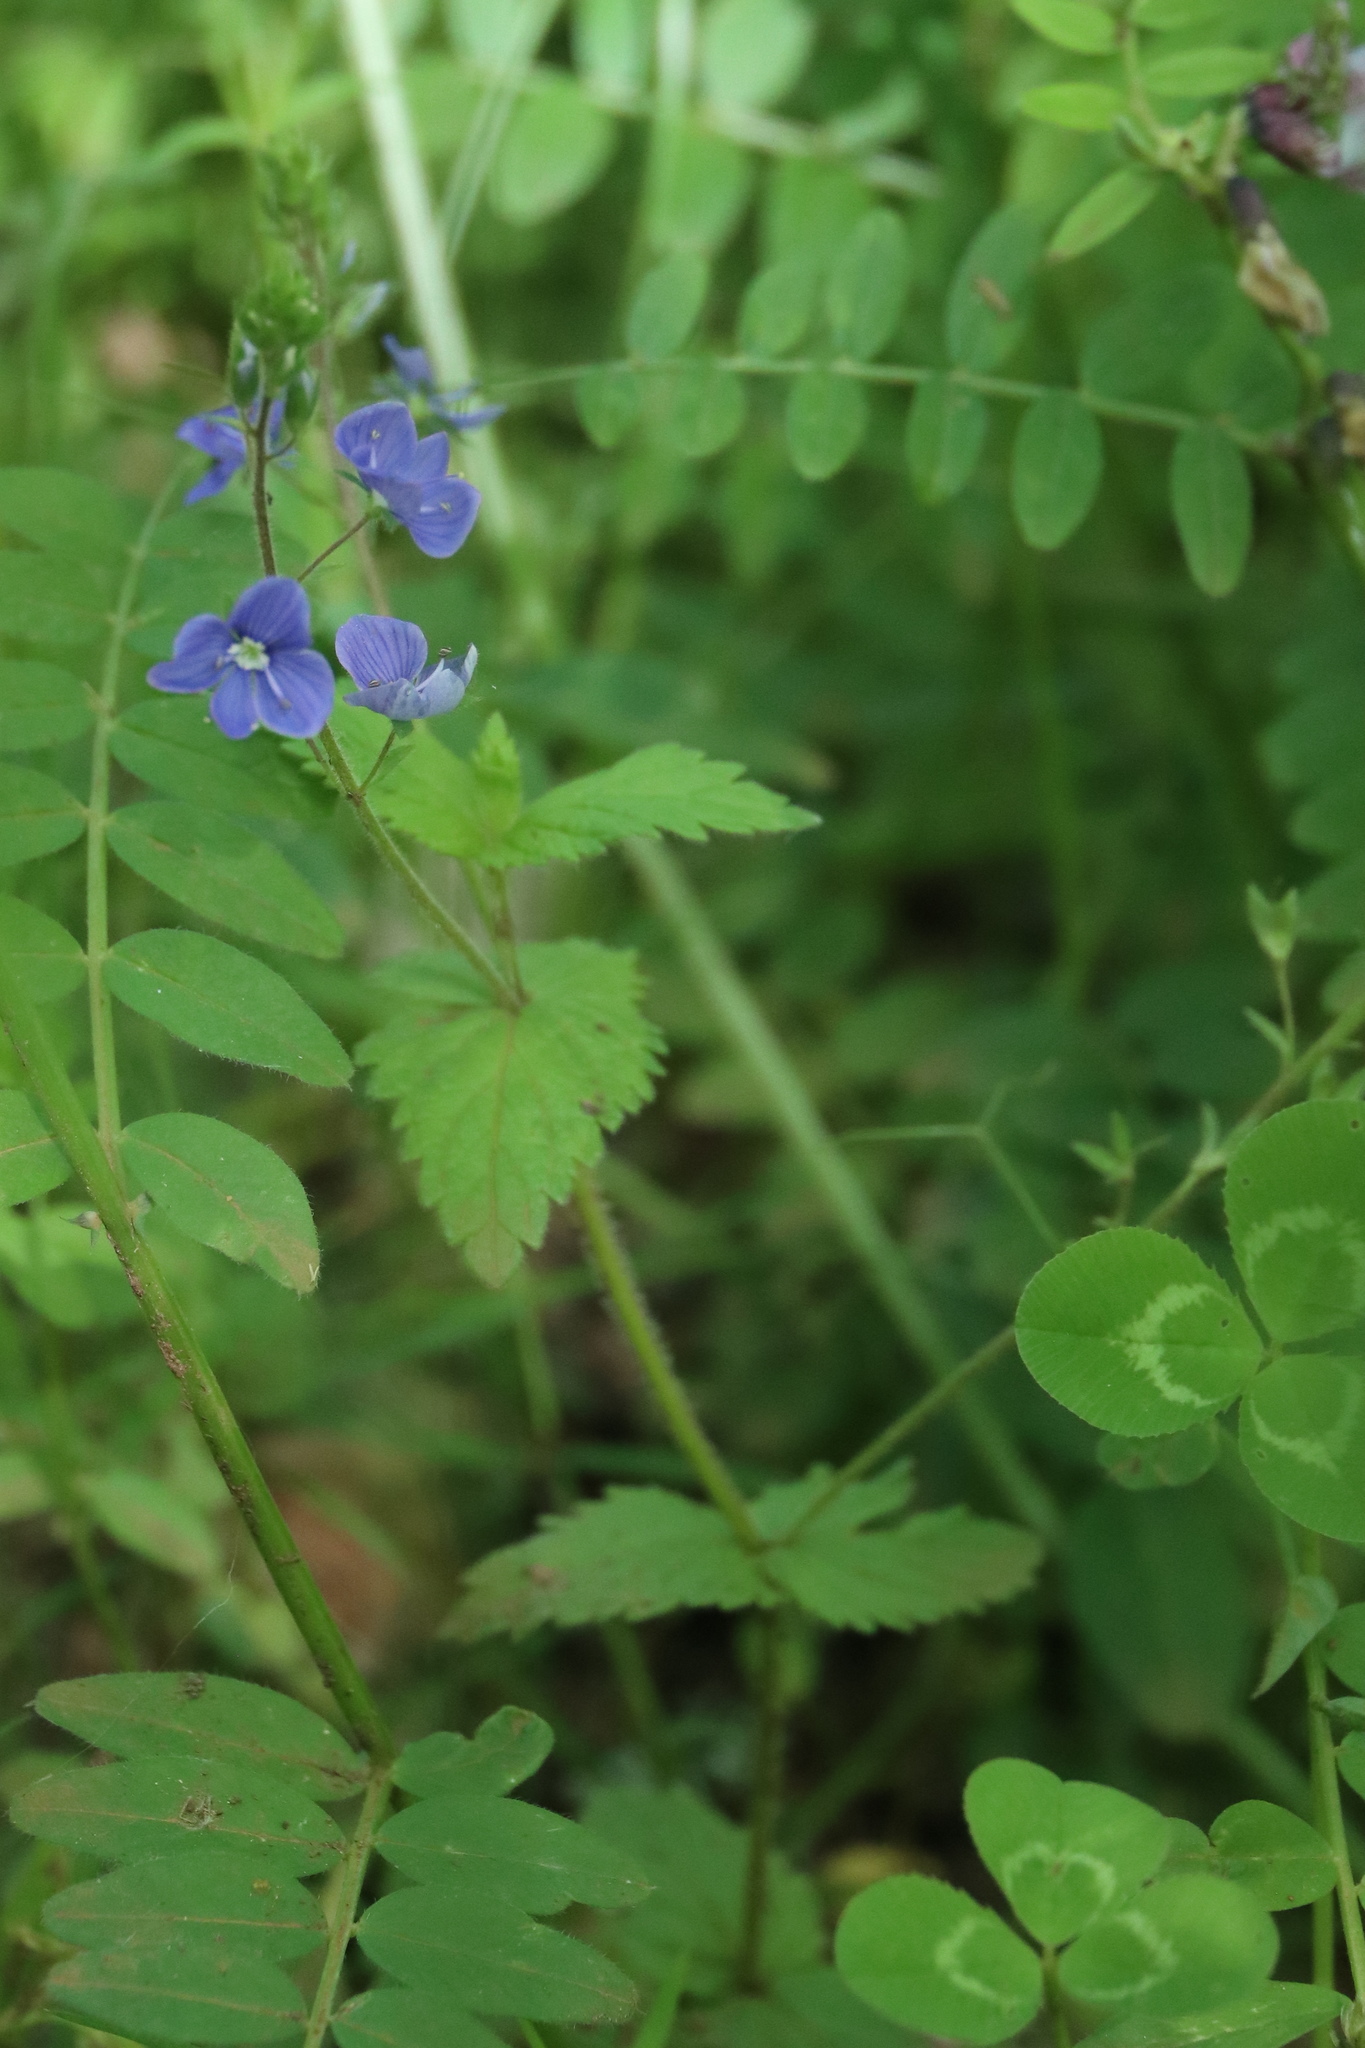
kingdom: Plantae
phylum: Tracheophyta
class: Magnoliopsida
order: Lamiales
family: Plantaginaceae
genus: Veronica
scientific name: Veronica chamaedrys
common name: Germander speedwell
